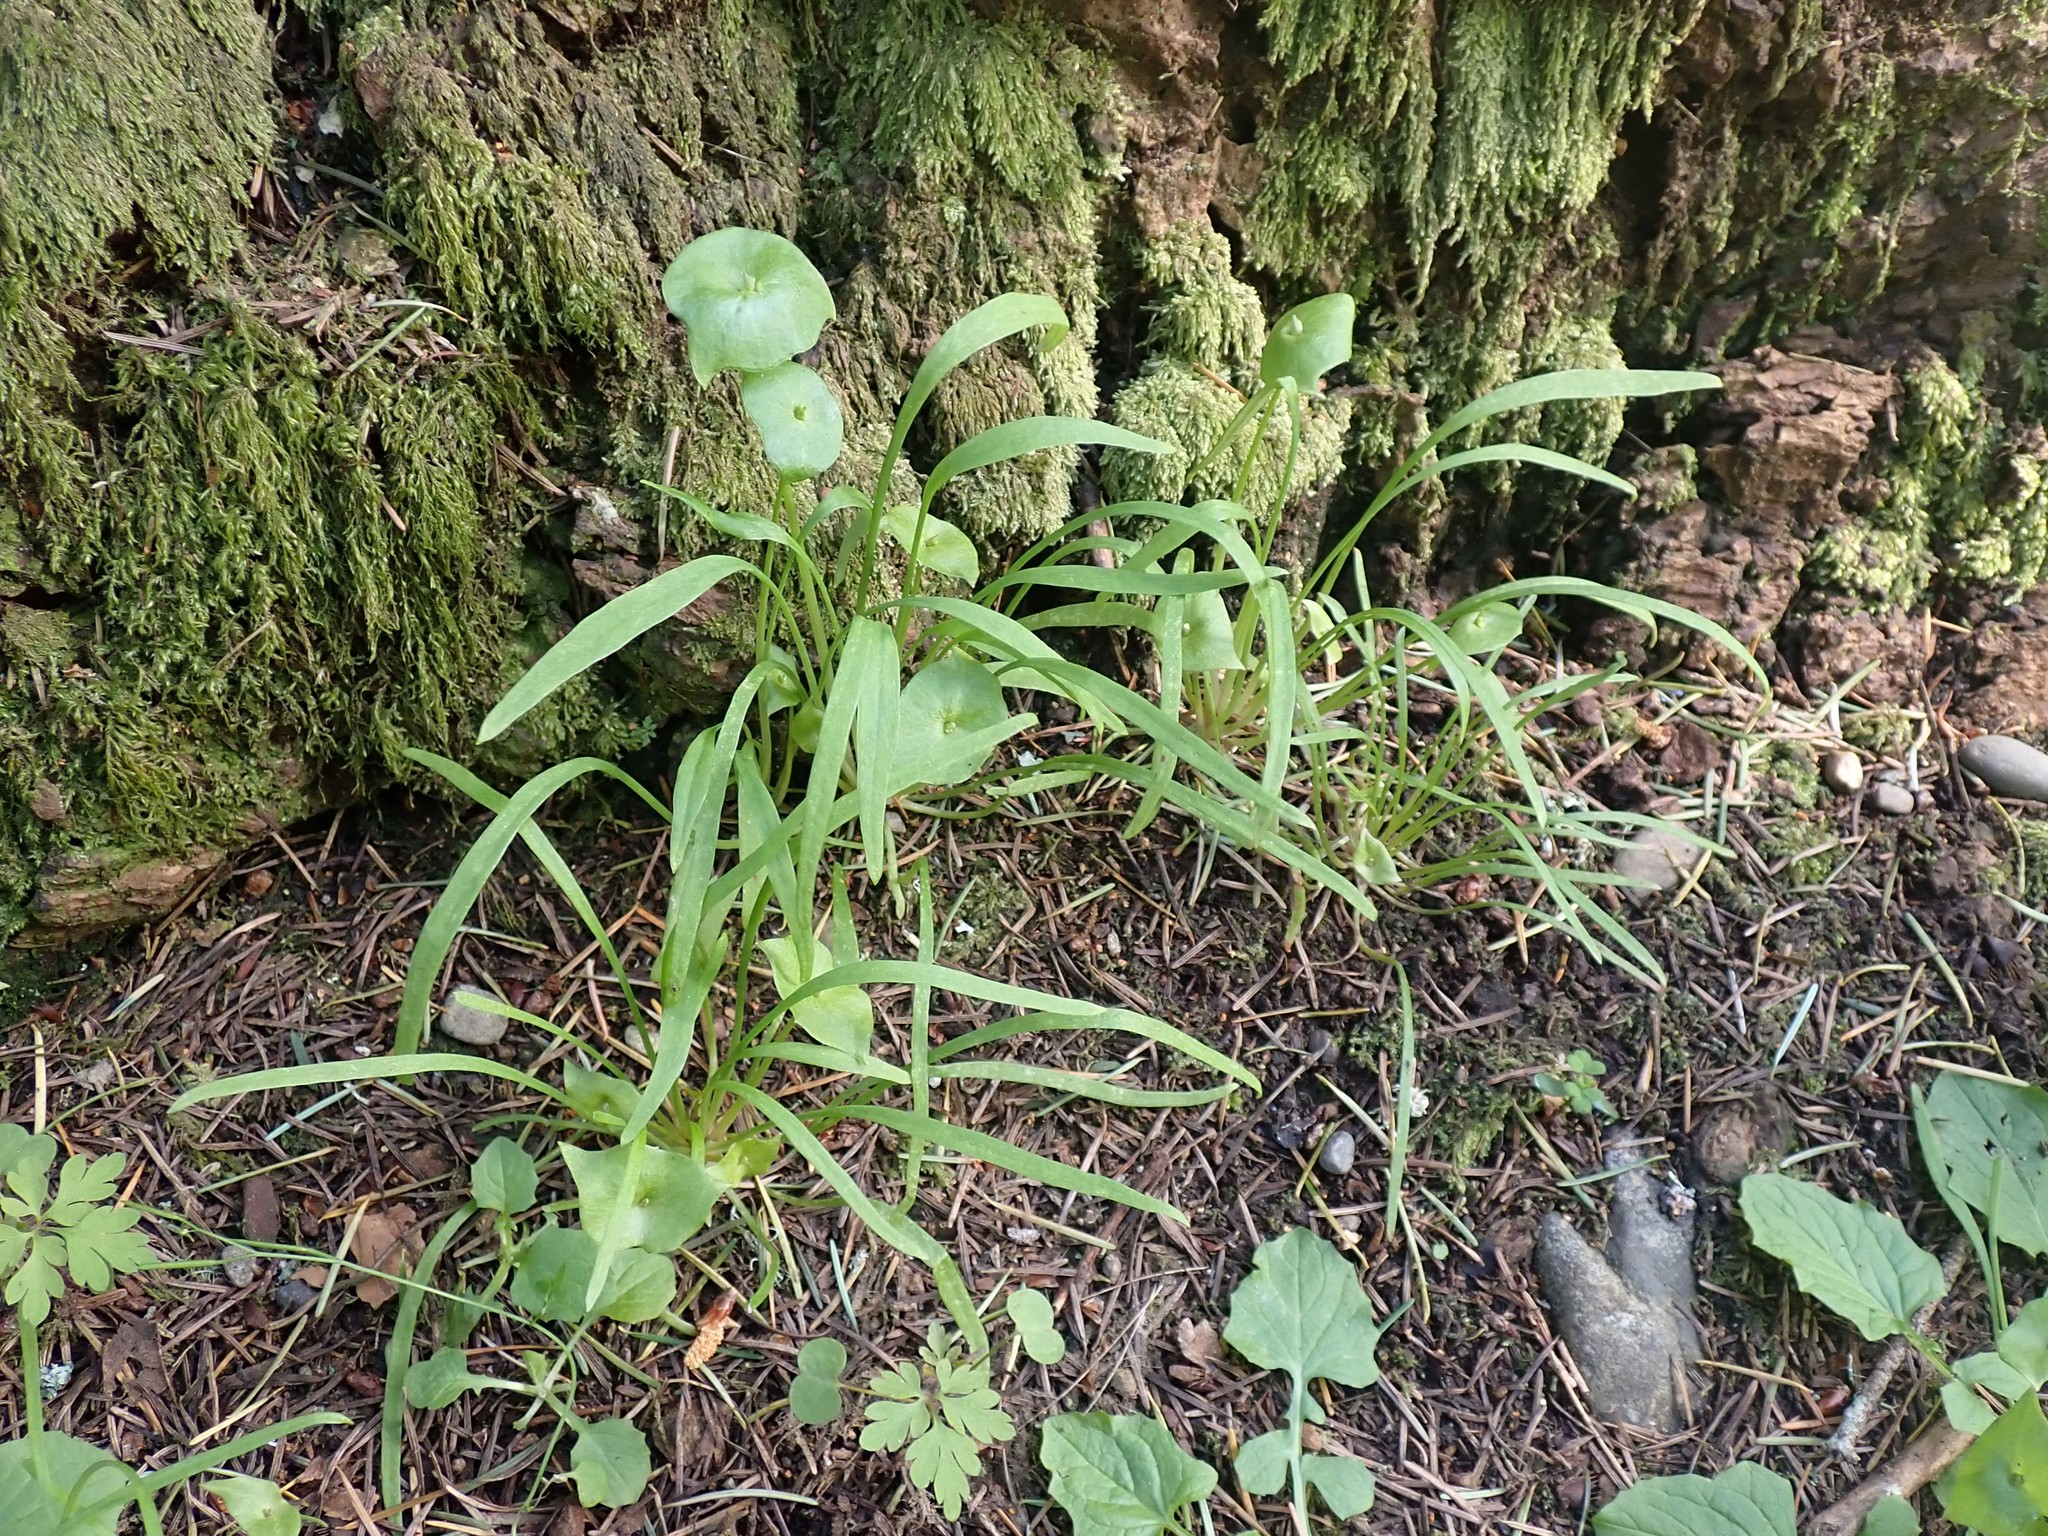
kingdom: Plantae
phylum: Tracheophyta
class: Magnoliopsida
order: Caryophyllales
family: Montiaceae
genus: Claytonia
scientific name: Claytonia parviflora
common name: Indian-lettuce
